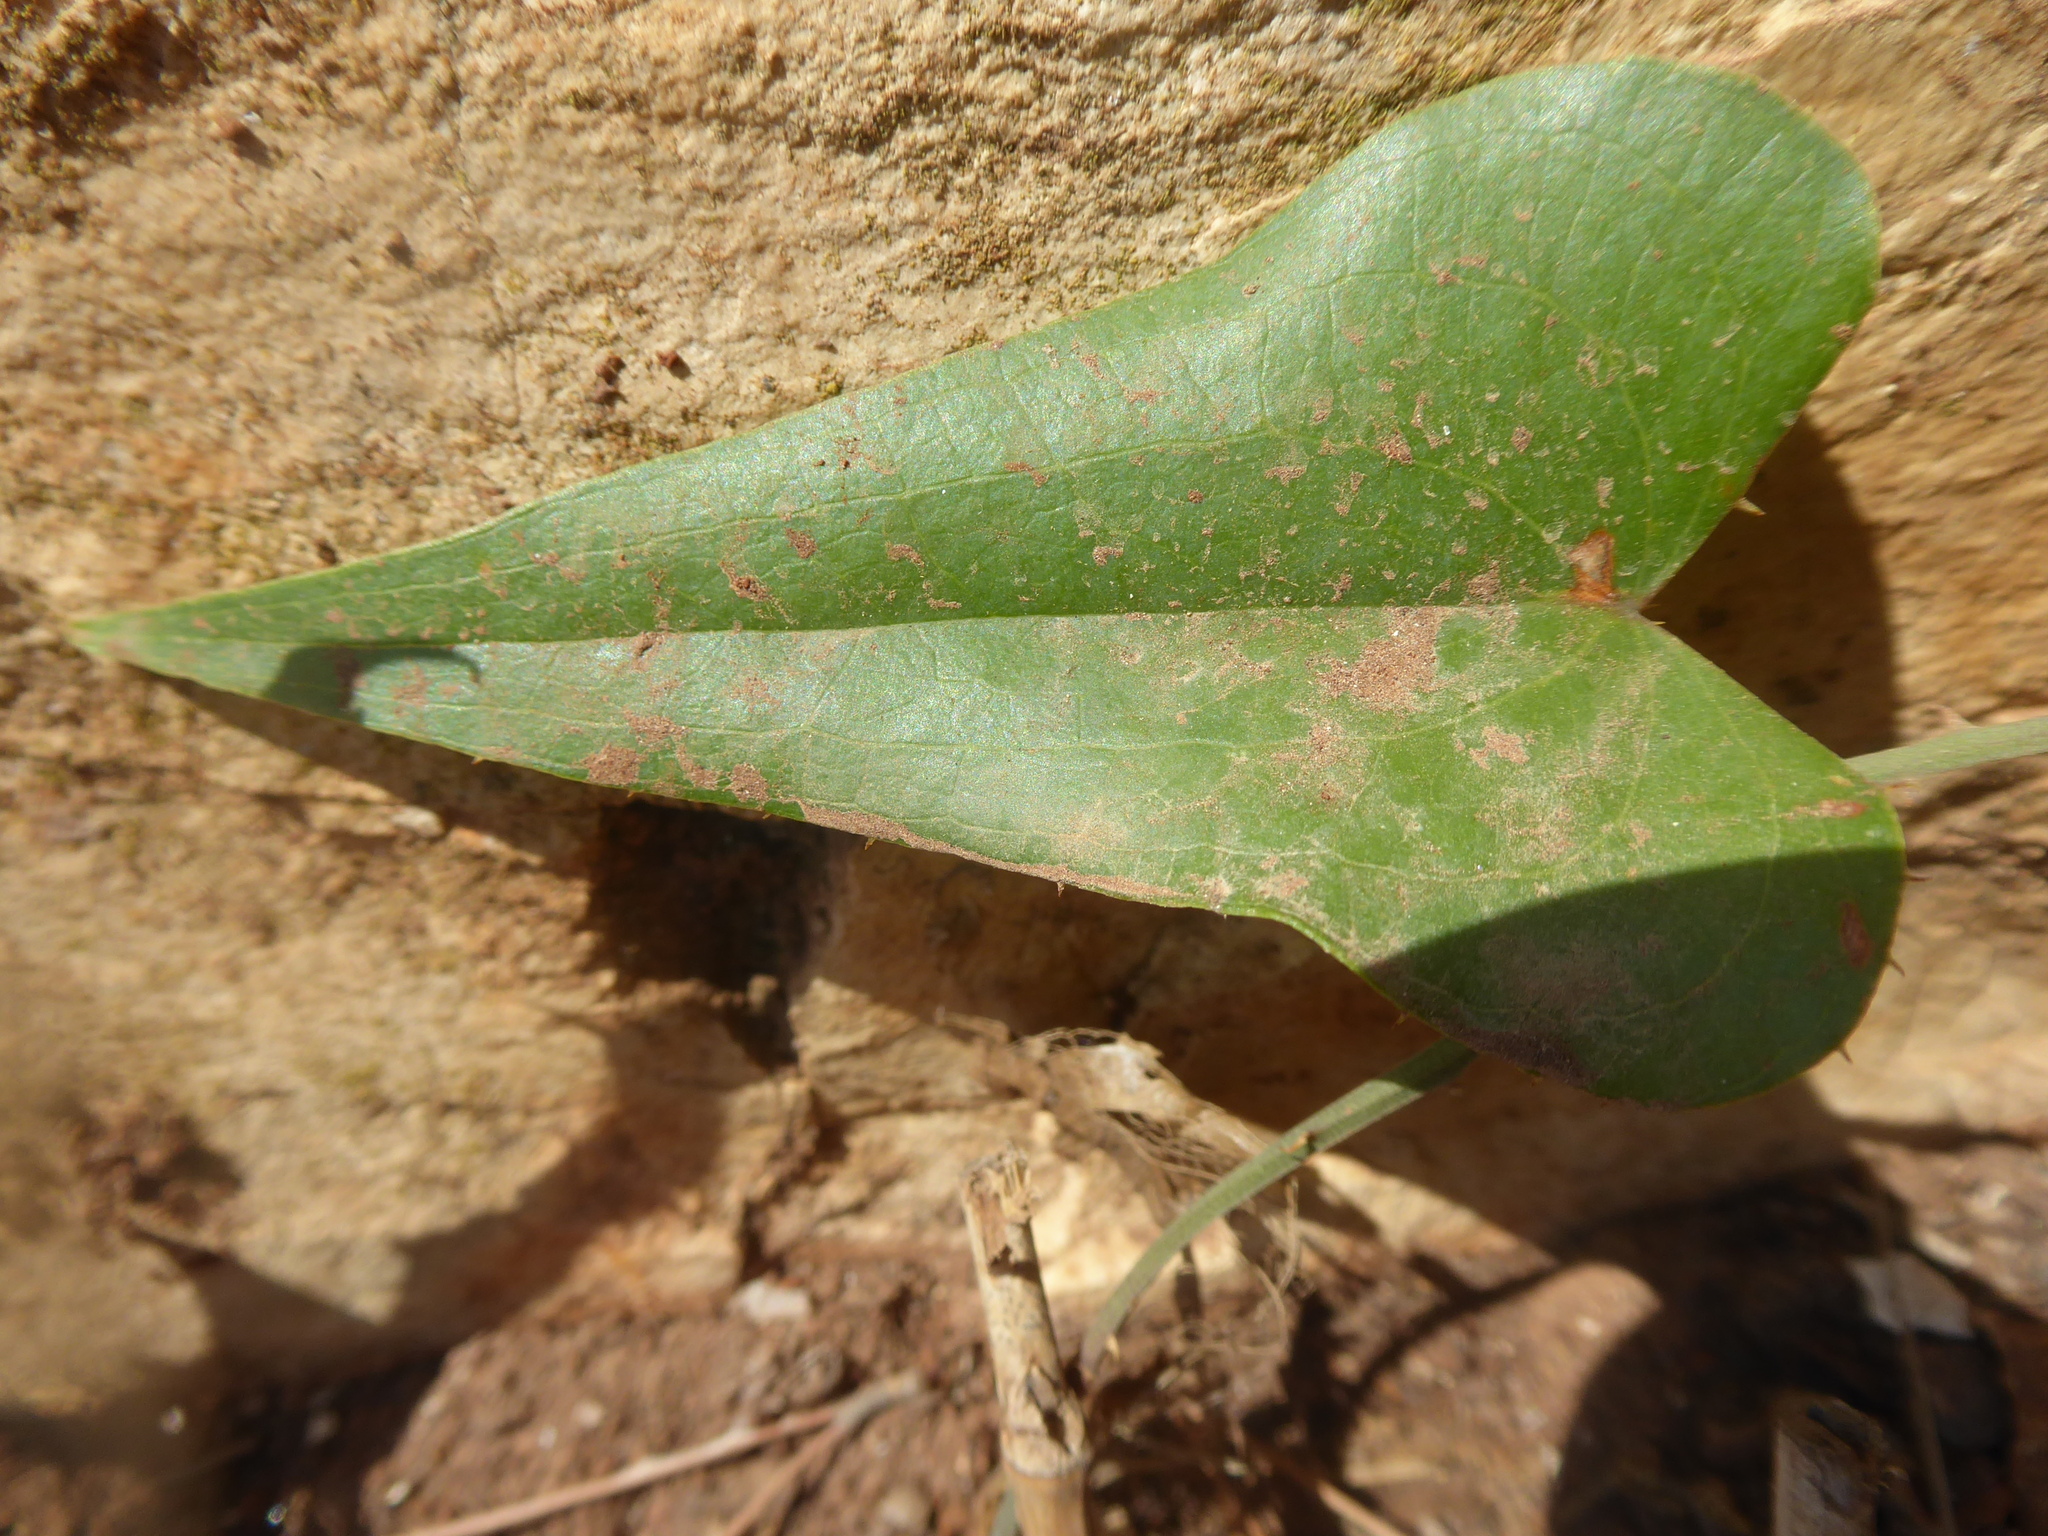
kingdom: Plantae
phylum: Tracheophyta
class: Liliopsida
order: Liliales
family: Smilacaceae
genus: Smilax
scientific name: Smilax aspera
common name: Common smilax
